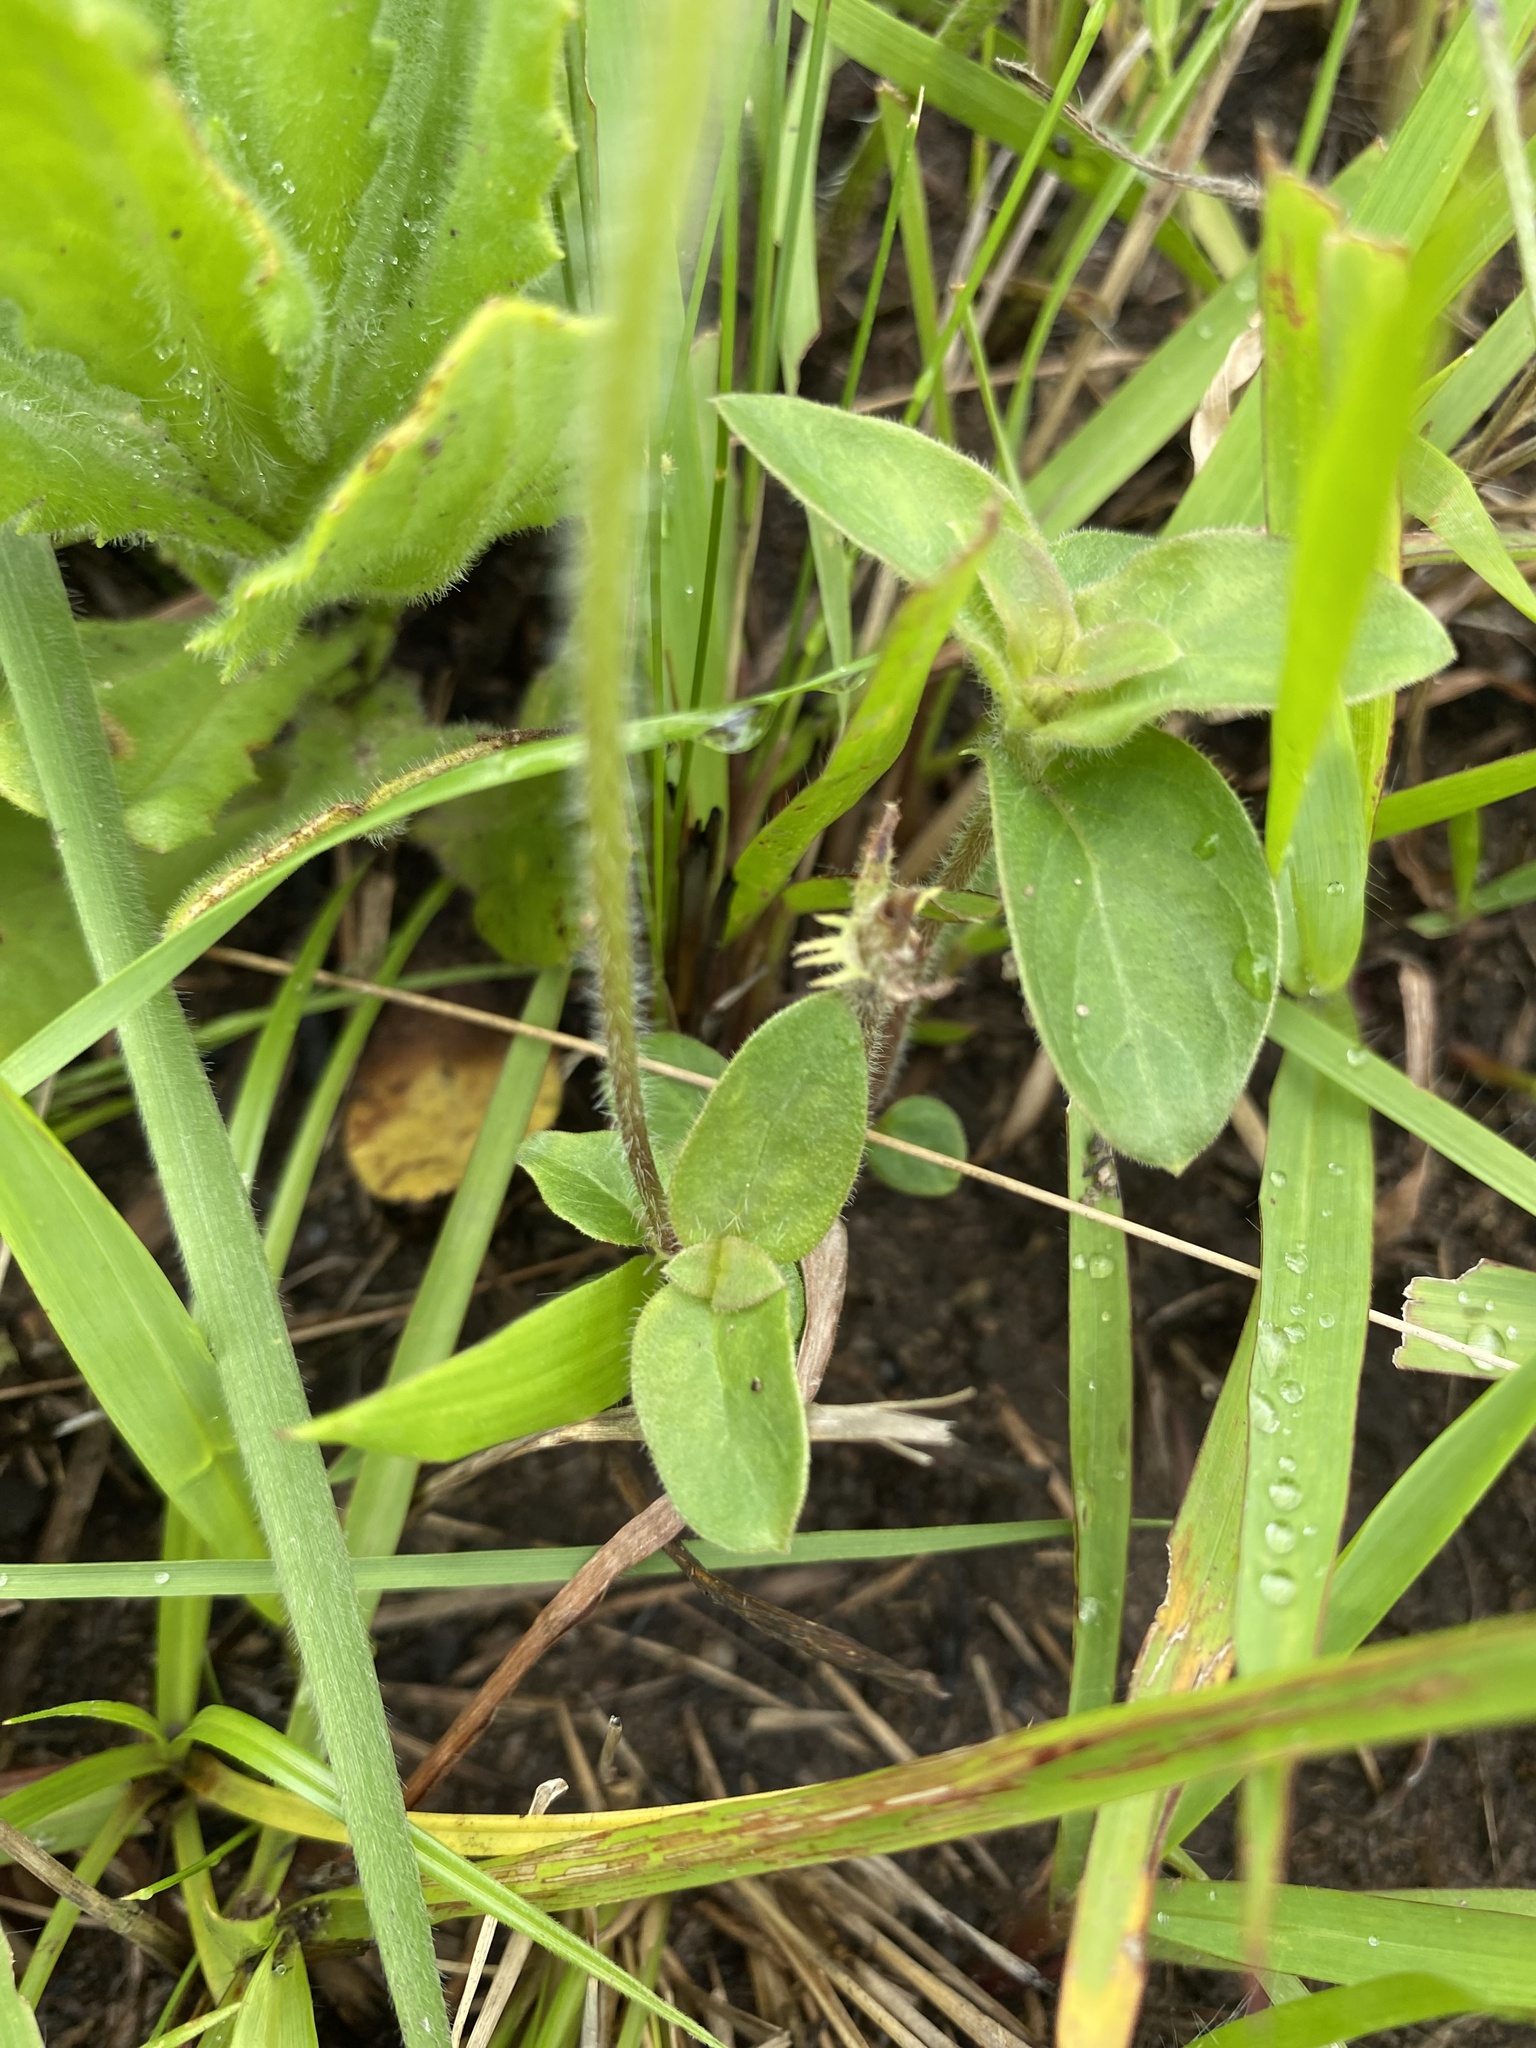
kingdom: Plantae
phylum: Tracheophyta
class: Magnoliopsida
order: Gentianales
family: Rubiaceae
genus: Pentanisia
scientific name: Pentanisia prunelloides
